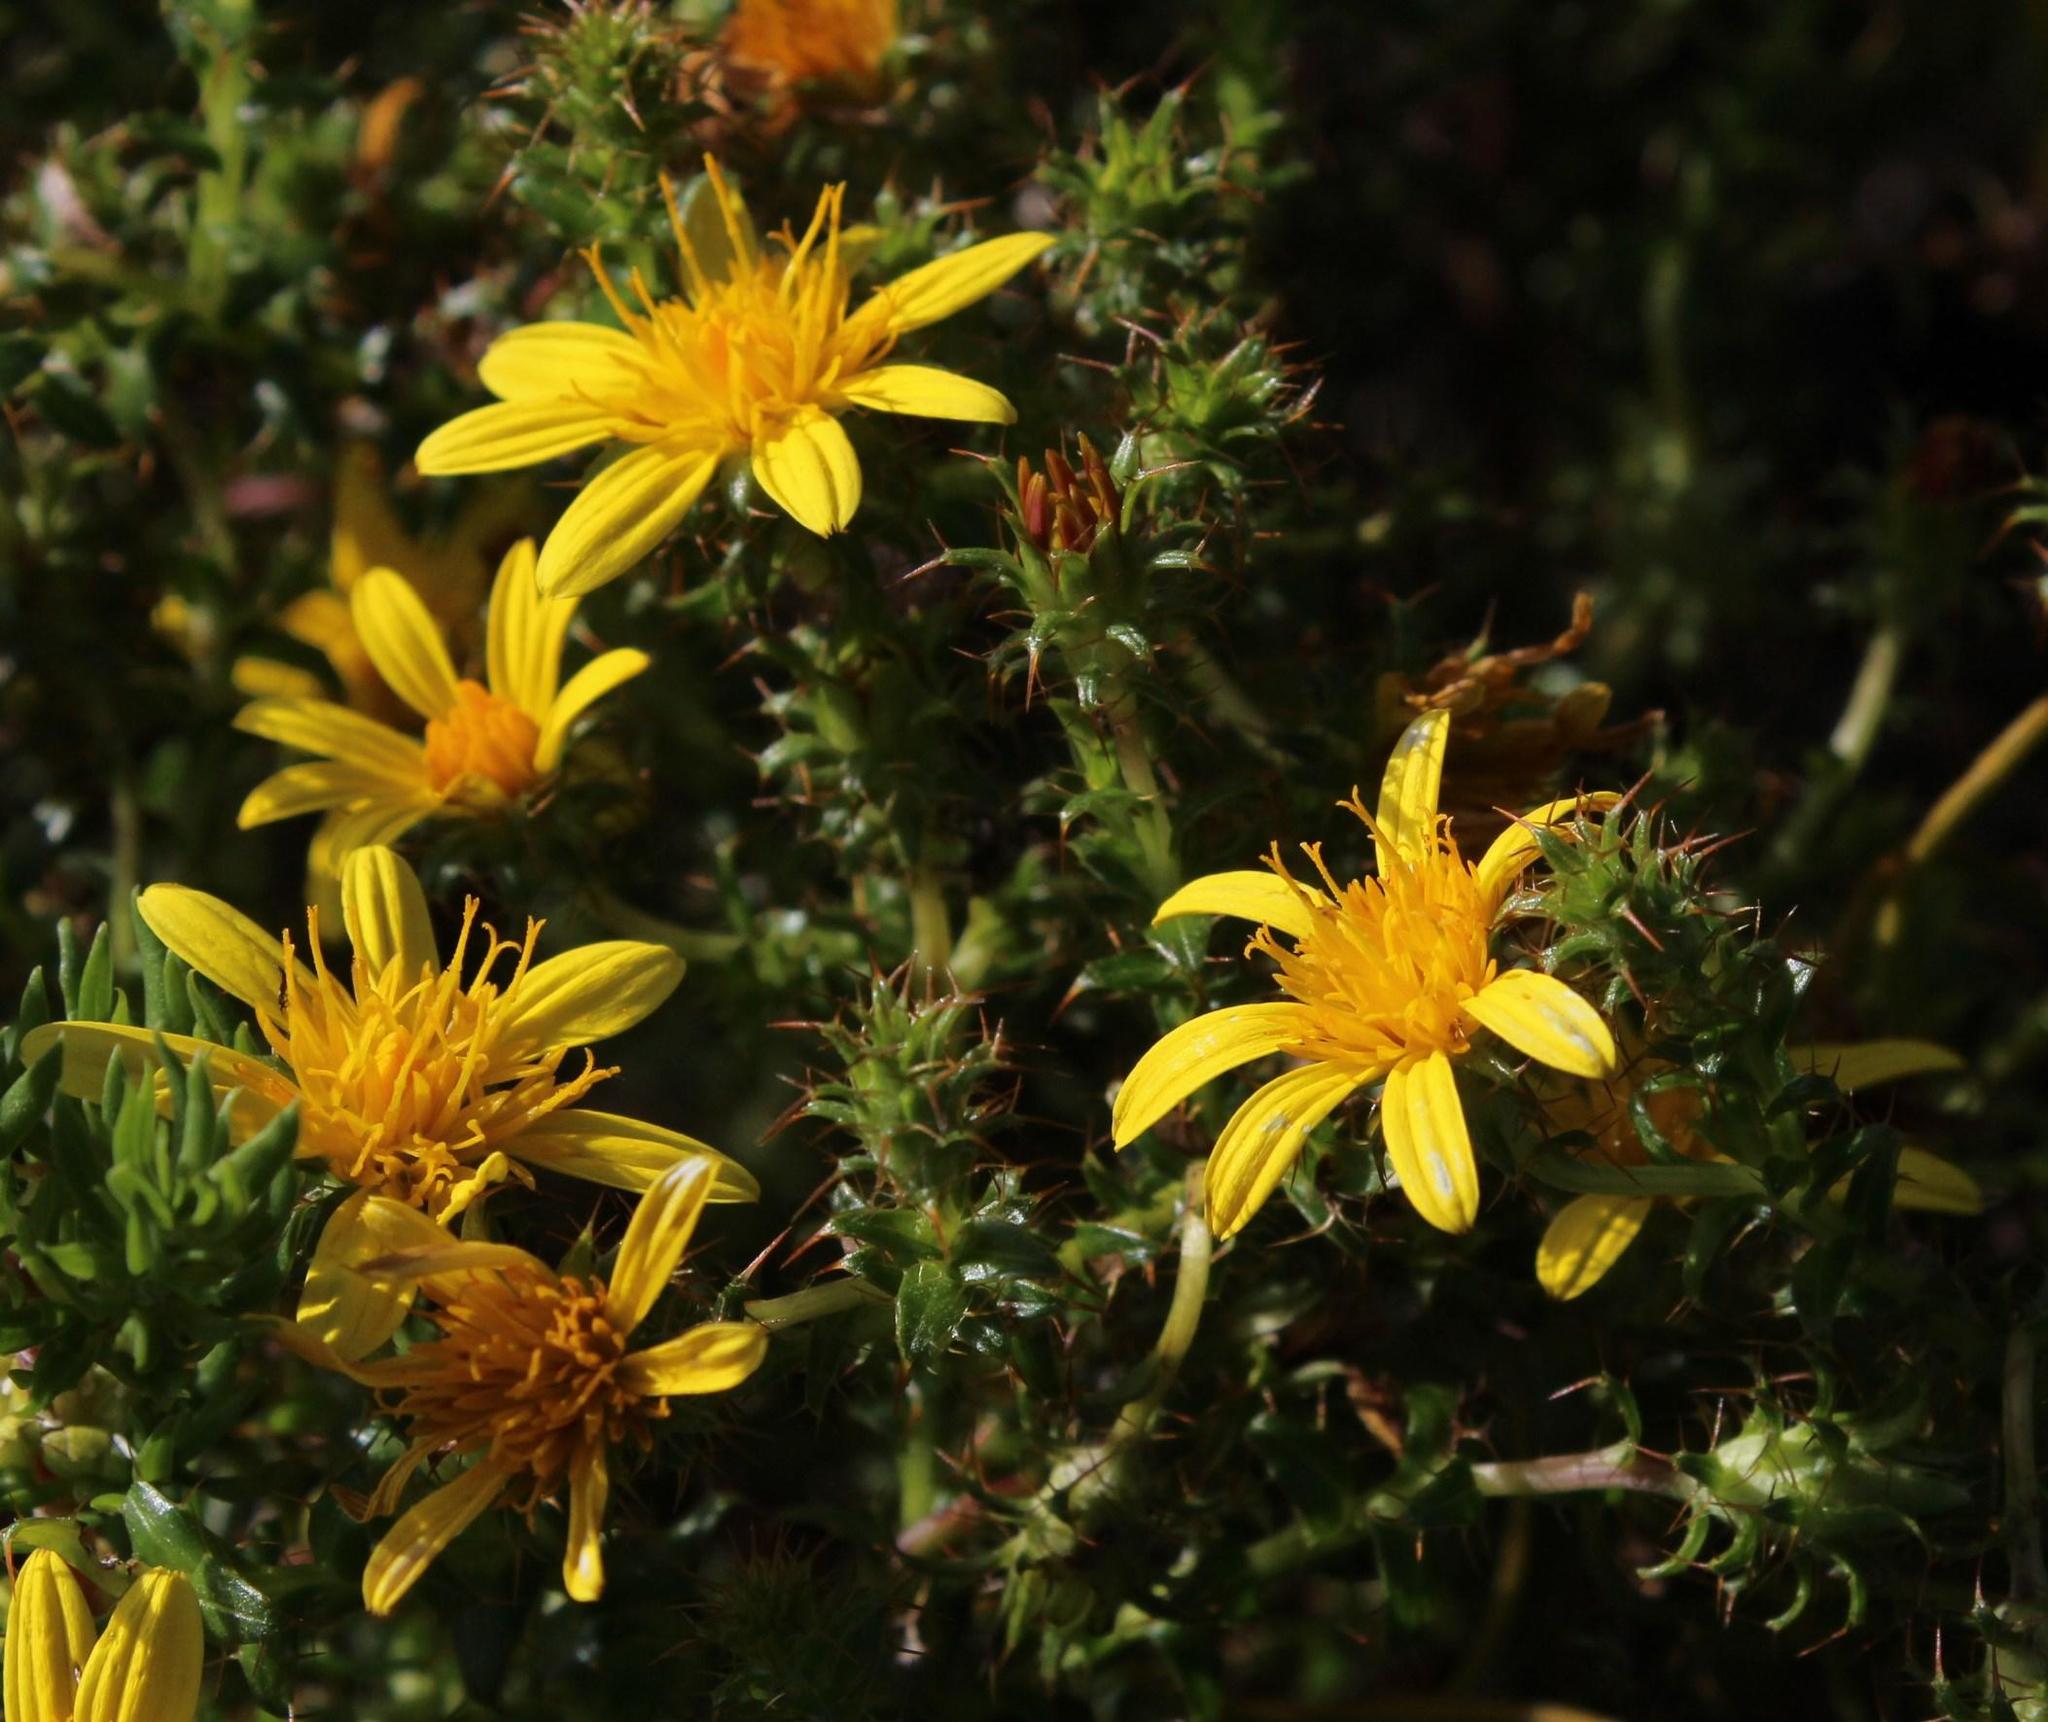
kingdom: Plantae
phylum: Tracheophyta
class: Magnoliopsida
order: Asterales
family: Asteraceae
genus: Cullumia
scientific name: Cullumia setosa
